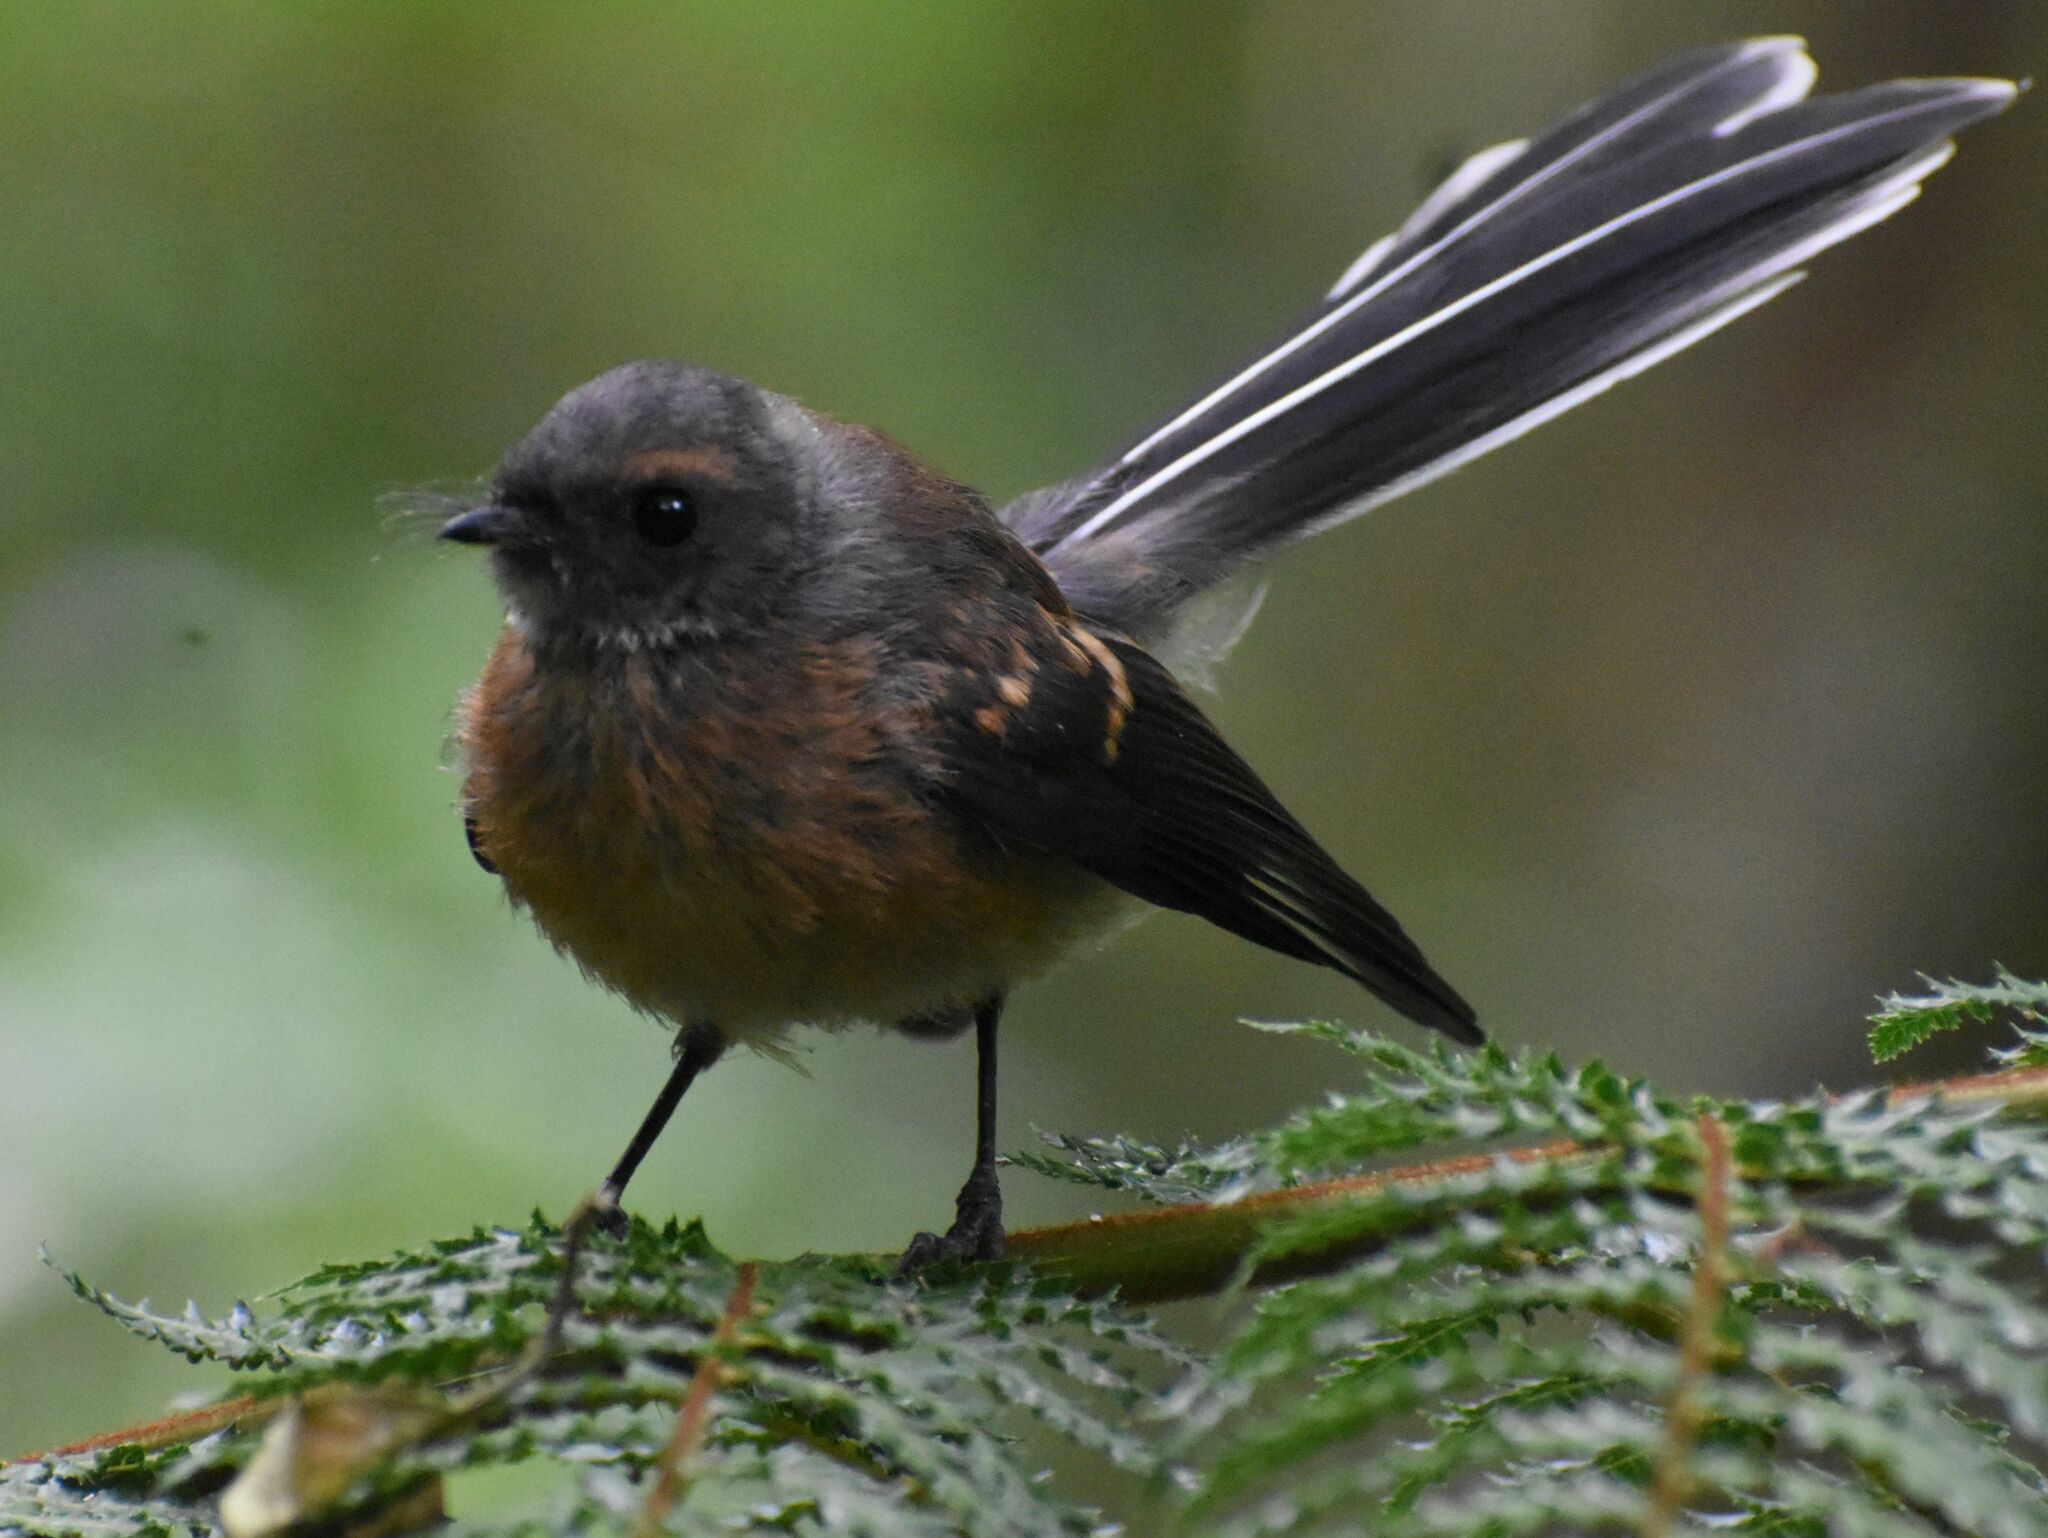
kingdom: Animalia
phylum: Chordata
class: Aves
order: Passeriformes
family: Rhipiduridae
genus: Rhipidura
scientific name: Rhipidura fuliginosa
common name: New zealand fantail
